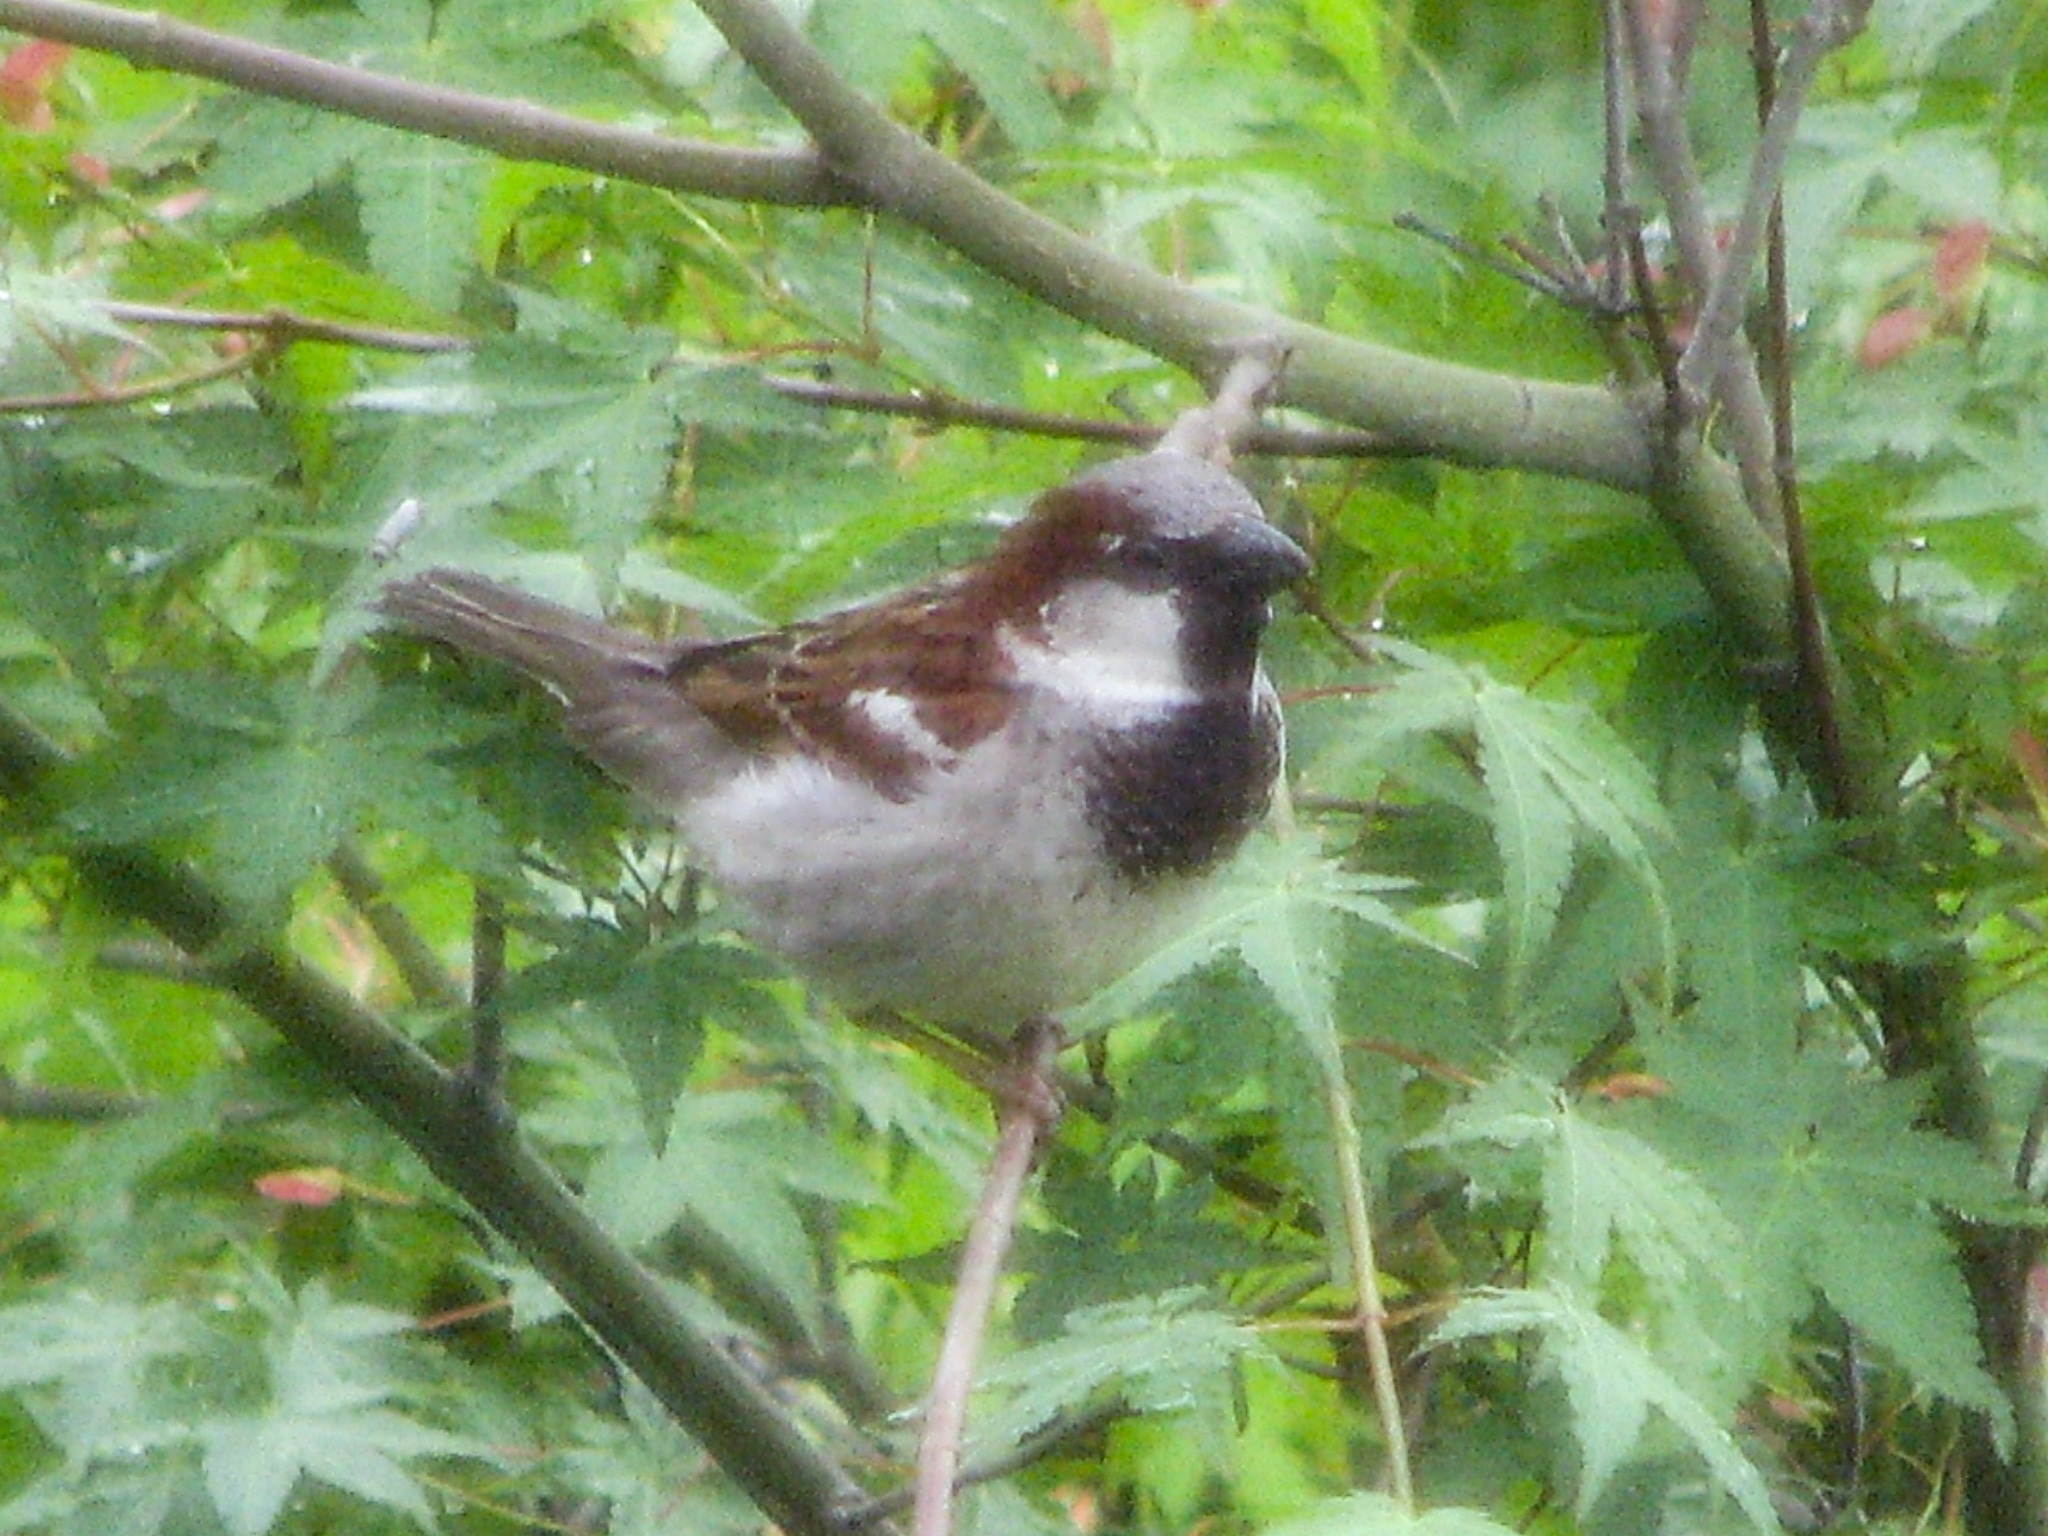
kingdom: Animalia
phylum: Chordata
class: Aves
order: Passeriformes
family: Passeridae
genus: Passer
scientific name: Passer domesticus
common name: House sparrow
